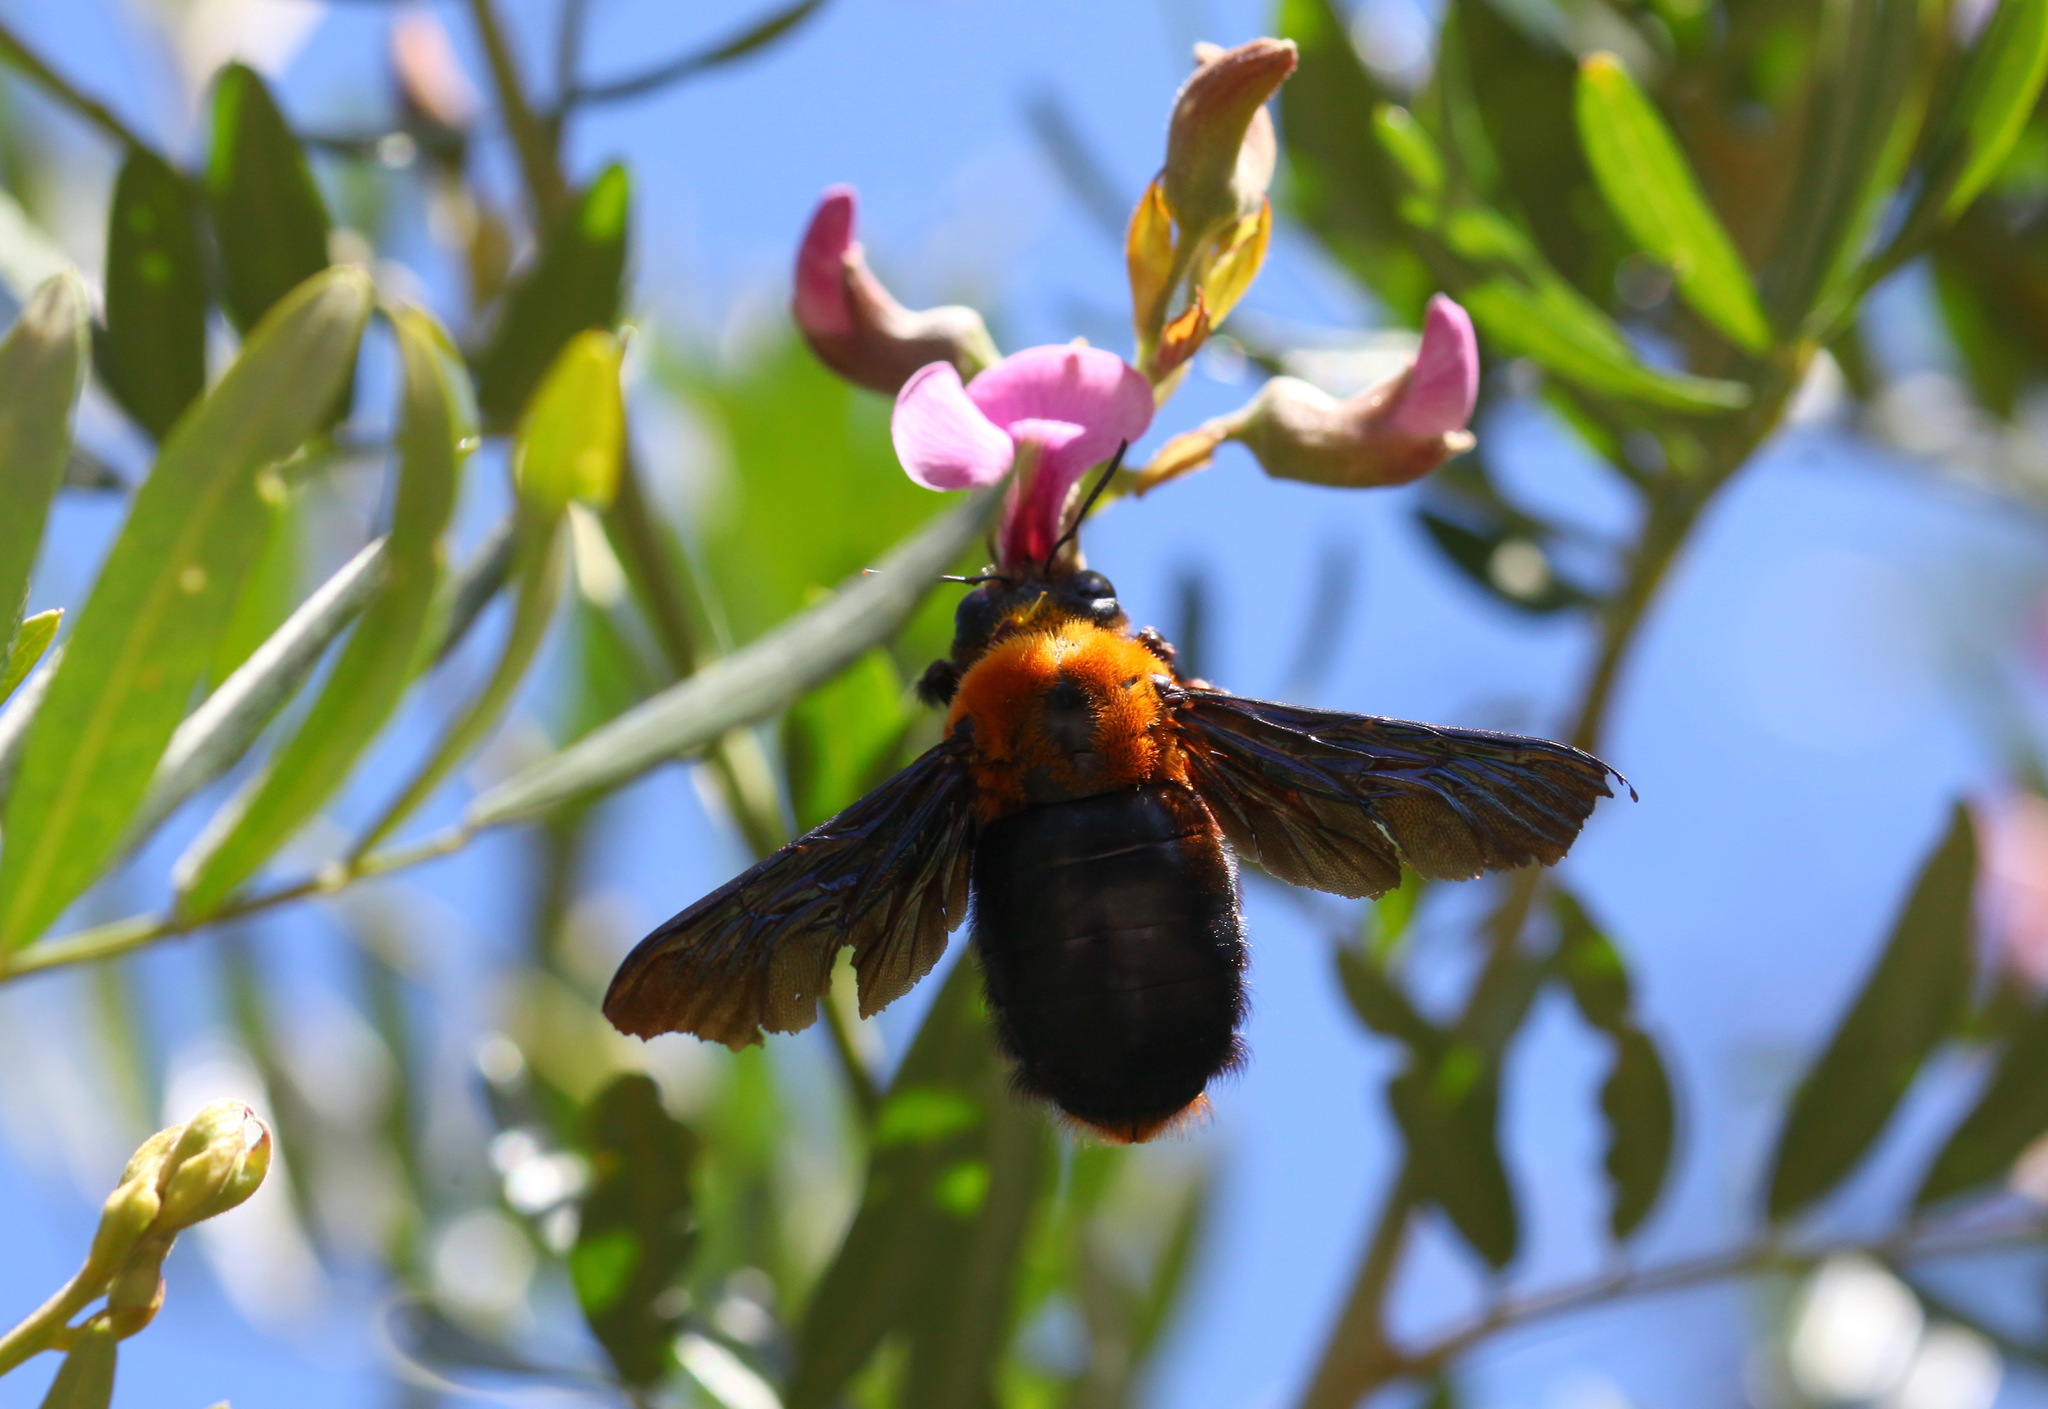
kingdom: Animalia
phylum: Arthropoda
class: Insecta
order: Hymenoptera
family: Apidae
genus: Xylocopa
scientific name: Xylocopa flavorufa
